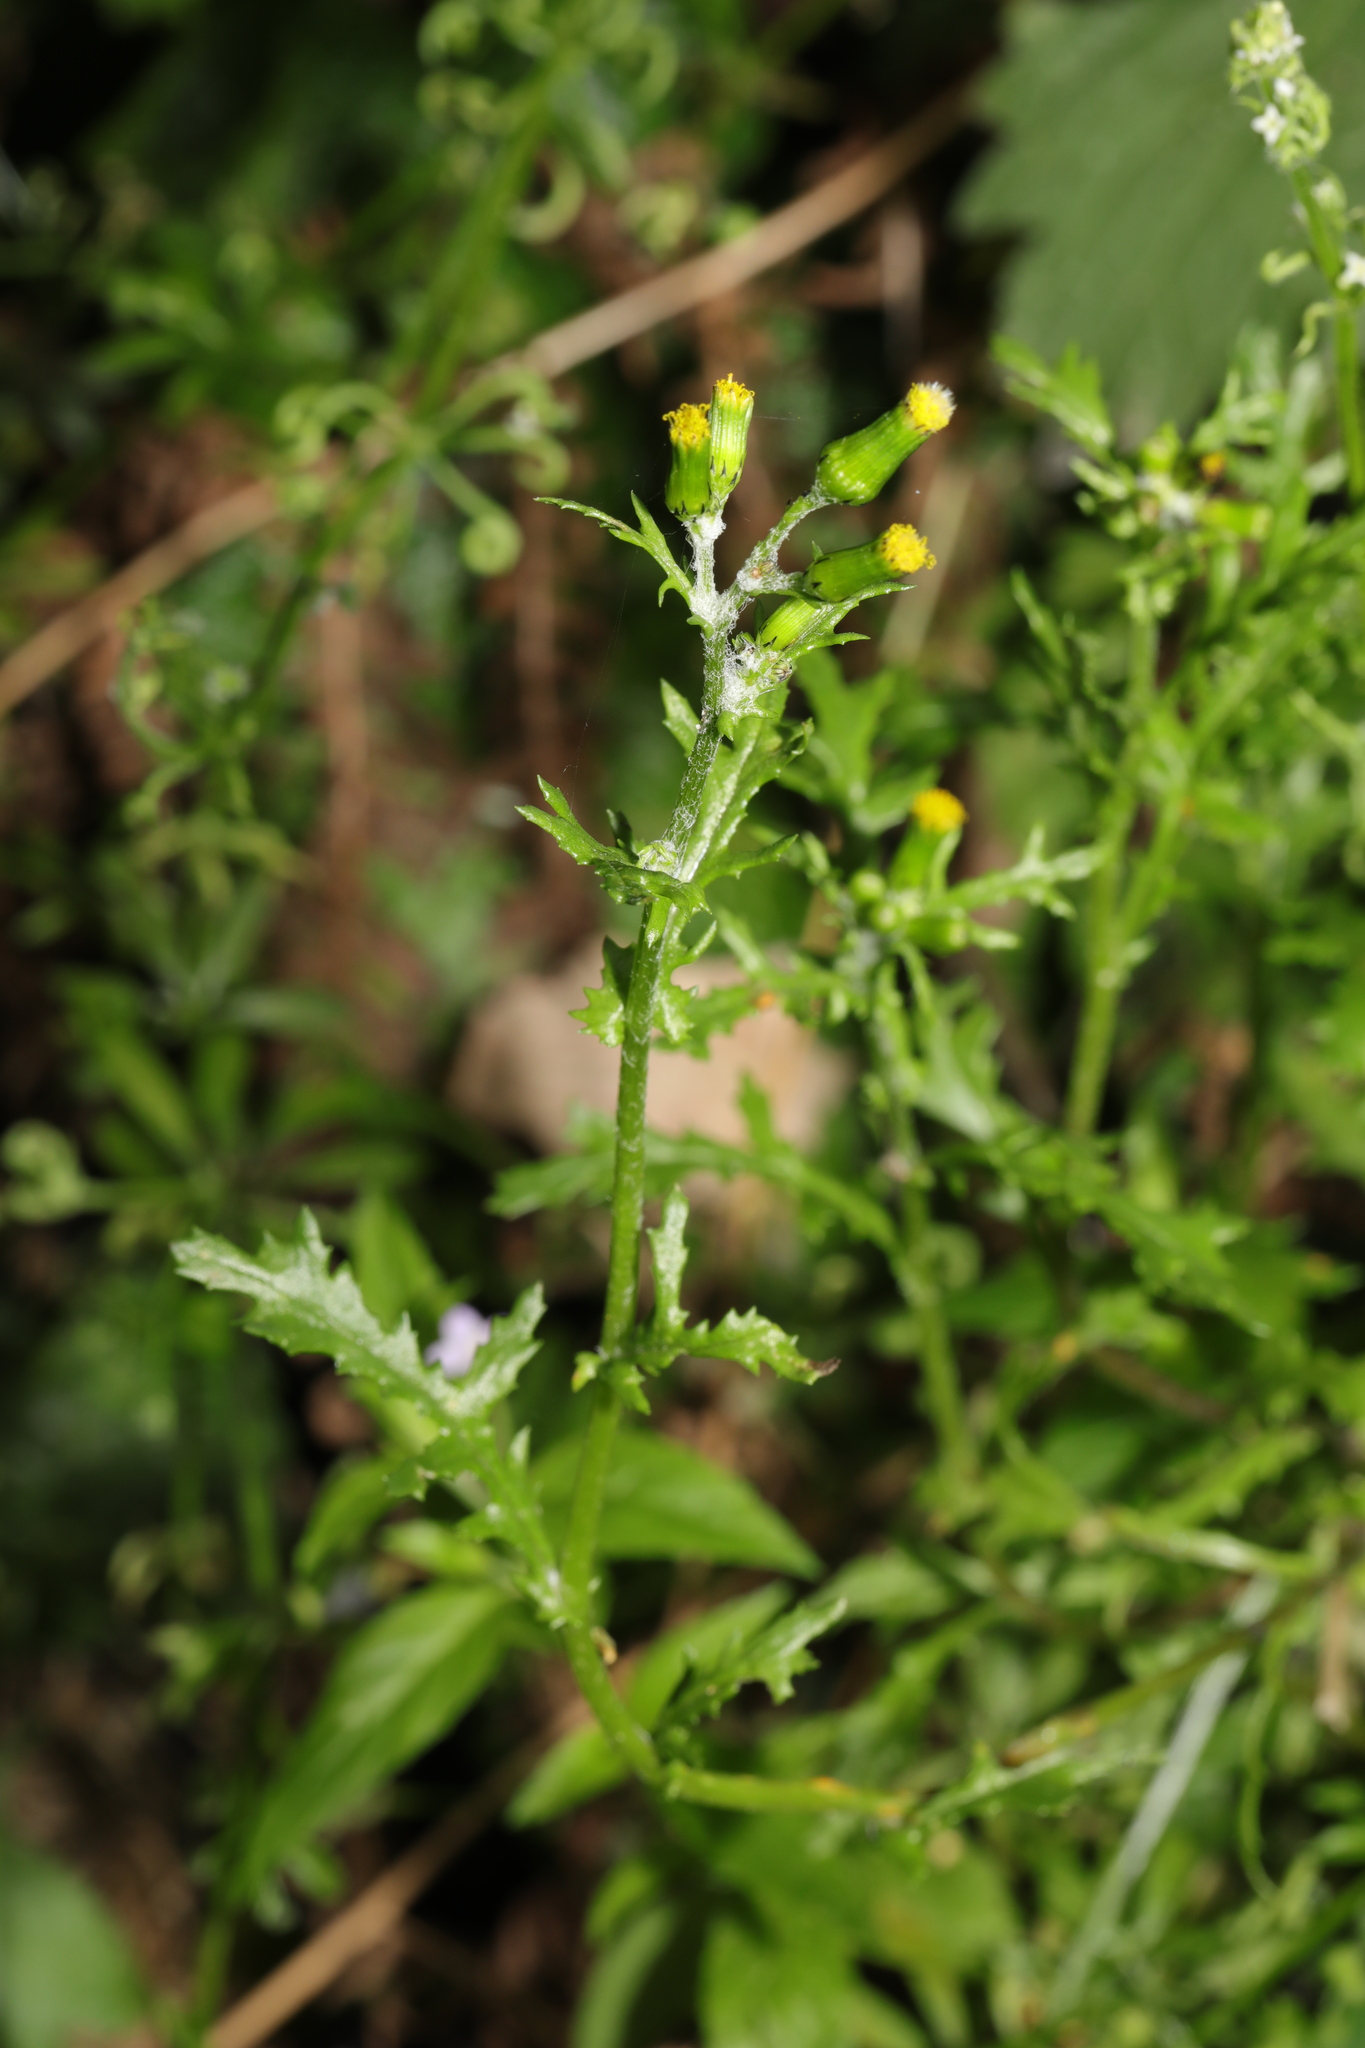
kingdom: Plantae
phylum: Tracheophyta
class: Magnoliopsida
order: Asterales
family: Asteraceae
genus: Senecio
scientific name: Senecio vulgaris
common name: Old-man-in-the-spring
